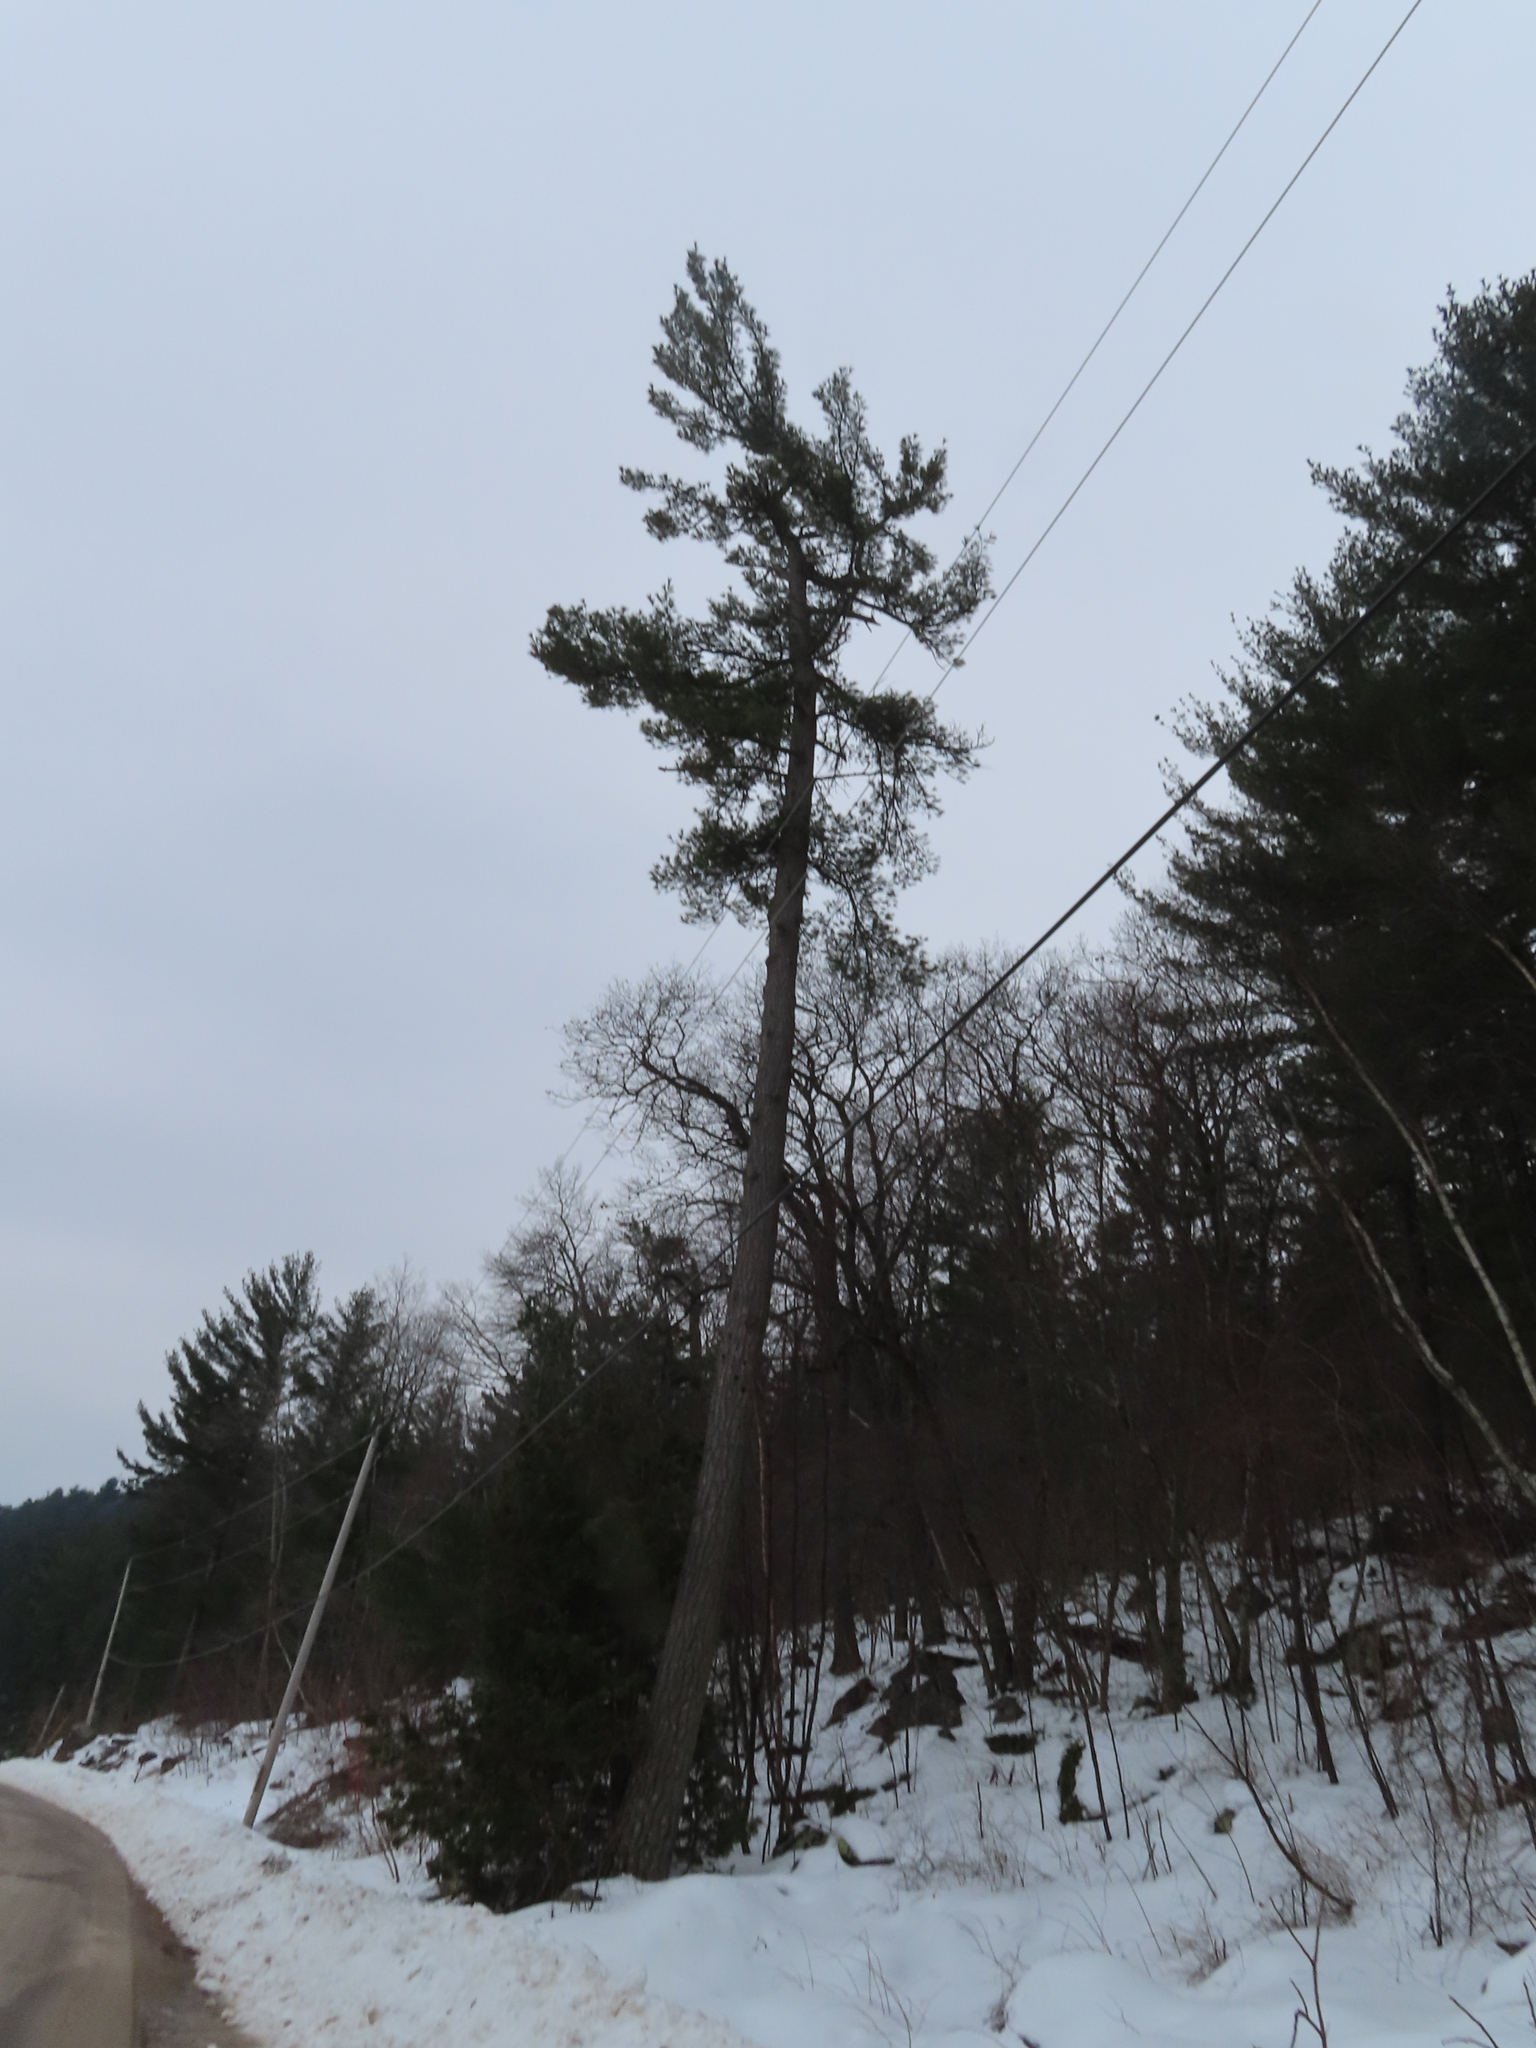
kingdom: Plantae
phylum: Tracheophyta
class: Pinopsida
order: Pinales
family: Pinaceae
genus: Pinus
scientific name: Pinus strobus
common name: Weymouth pine
